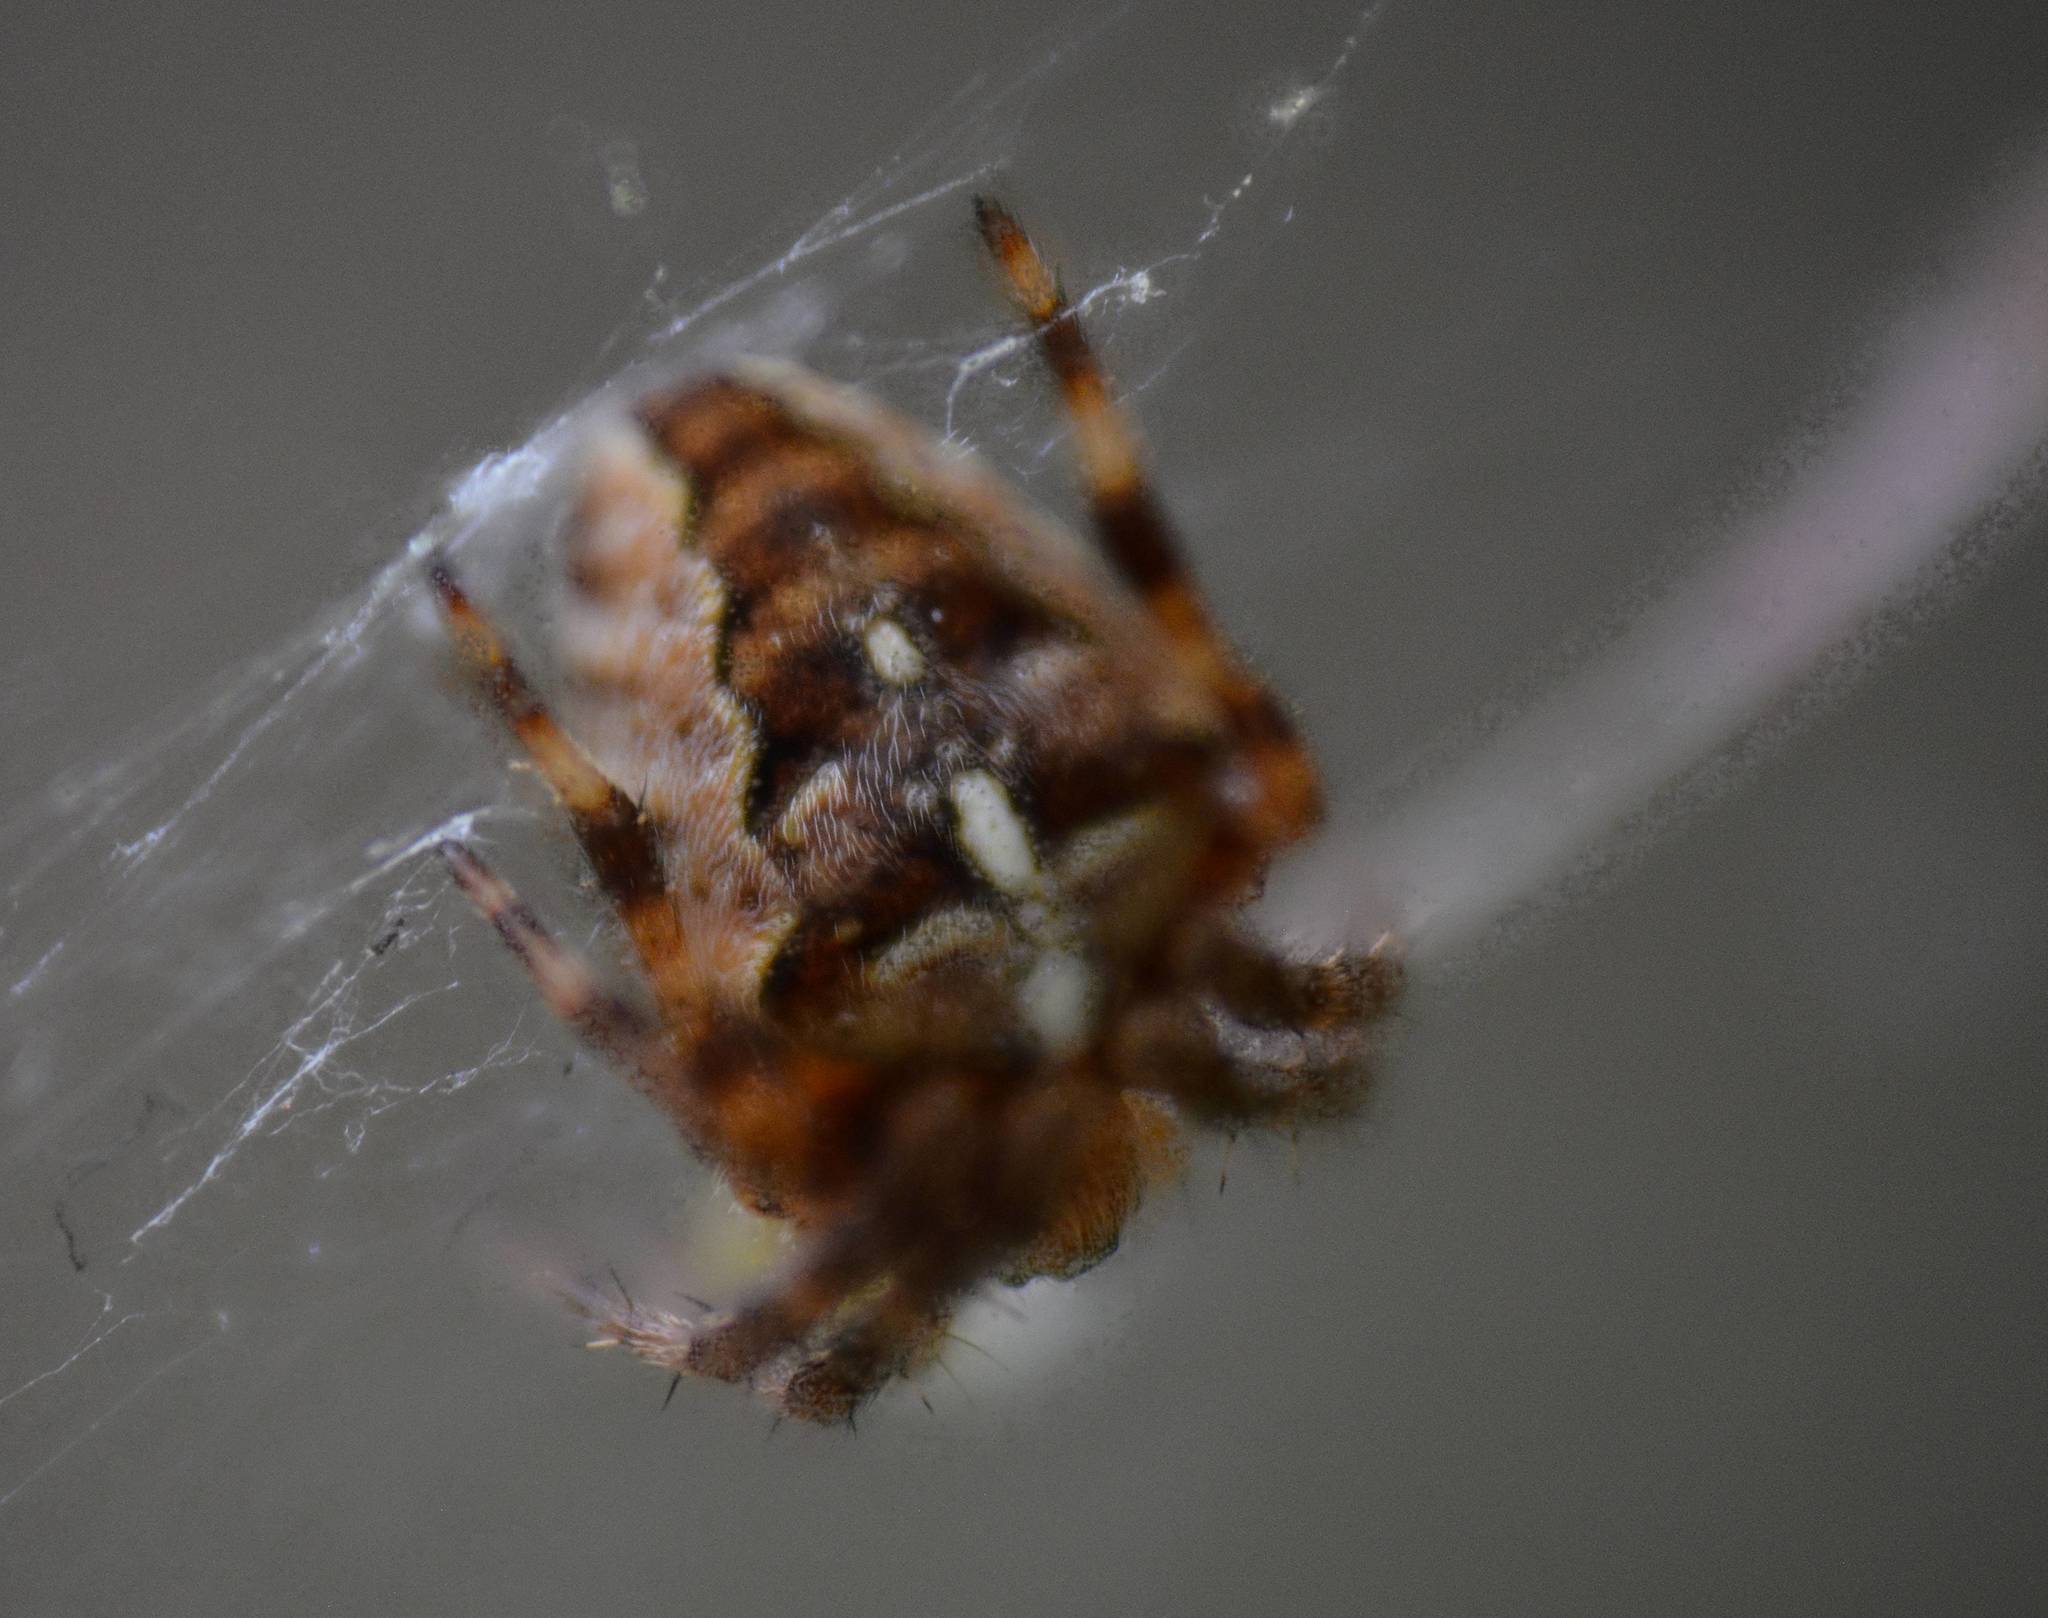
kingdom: Animalia
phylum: Arthropoda
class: Arachnida
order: Araneae
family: Araneidae
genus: Araneus
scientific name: Araneus diadematus
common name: Cross orbweaver
